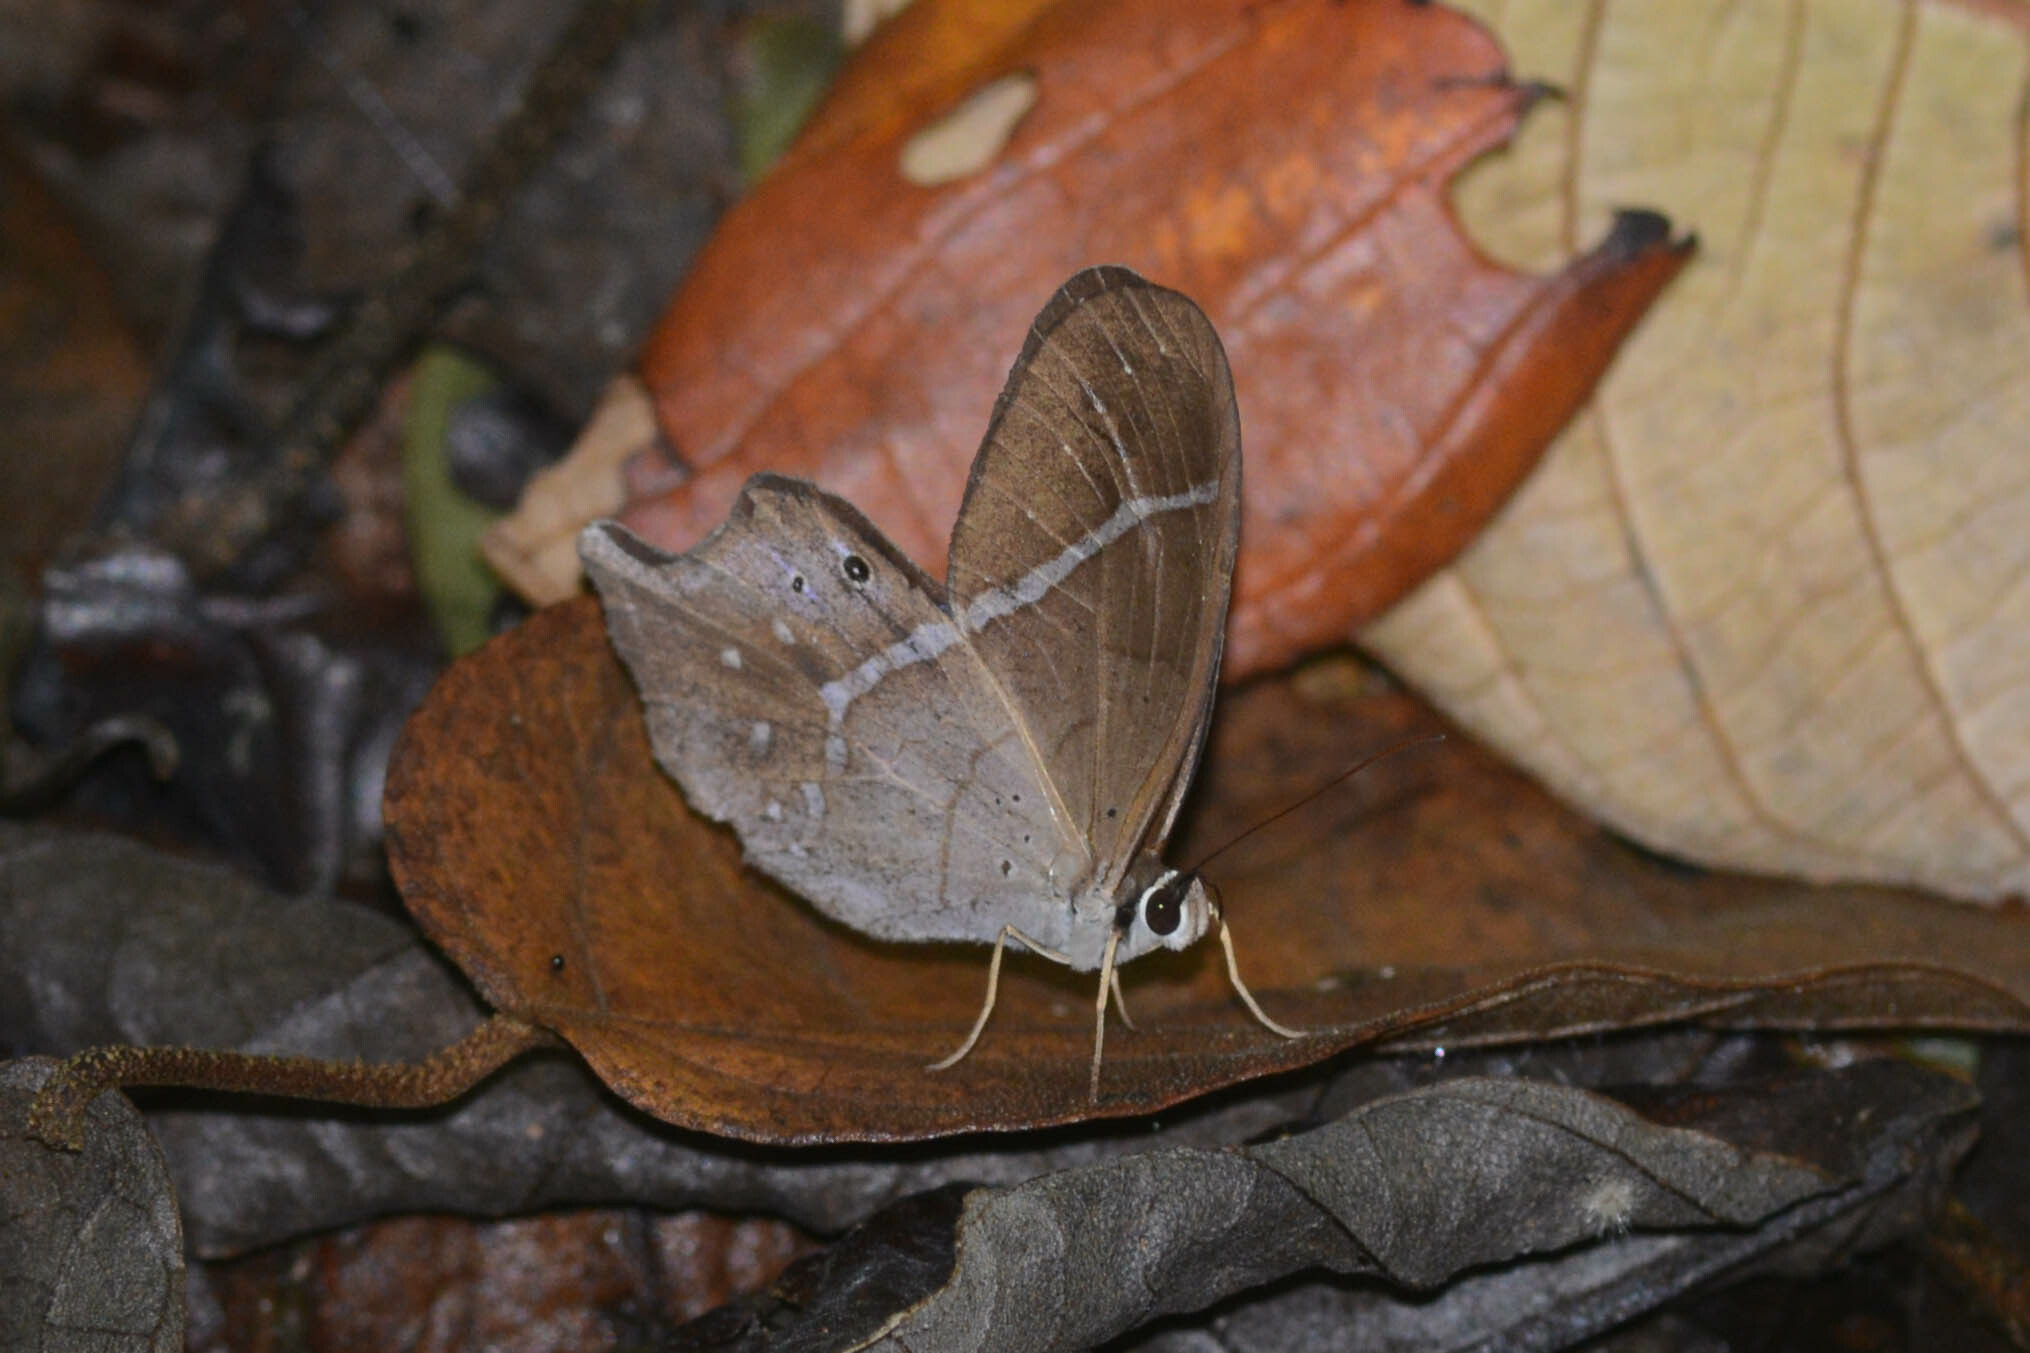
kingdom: Animalia
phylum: Arthropoda
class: Insecta
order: Lepidoptera
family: Nymphalidae
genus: Pierella
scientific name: Pierella dracontis
